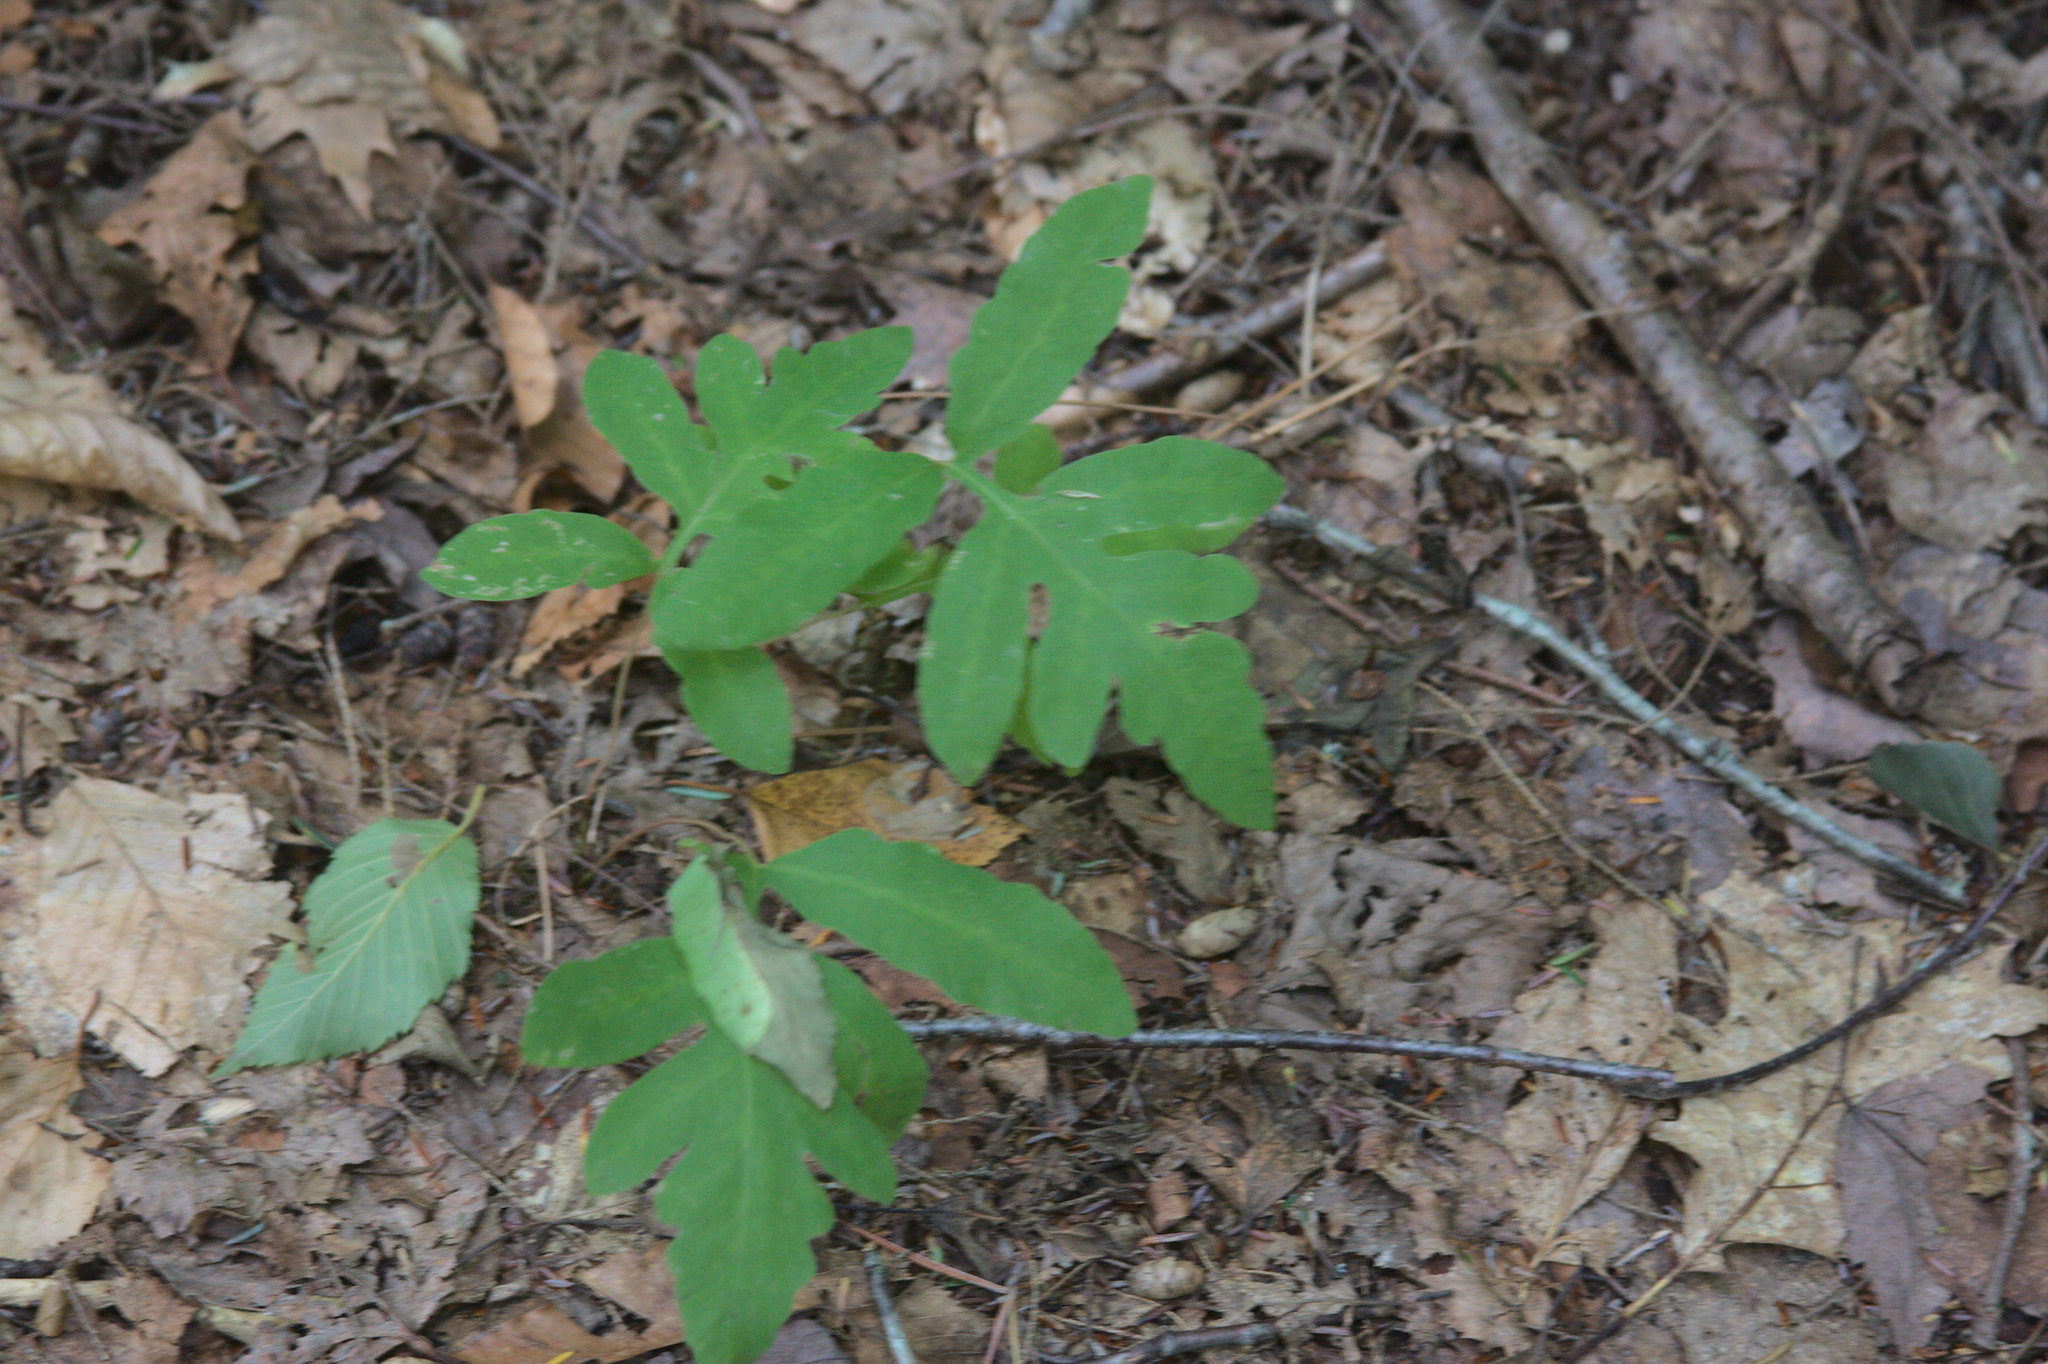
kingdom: Plantae
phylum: Tracheophyta
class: Polypodiopsida
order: Polypodiales
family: Onocleaceae
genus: Onoclea
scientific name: Onoclea sensibilis
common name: Sensitive fern
